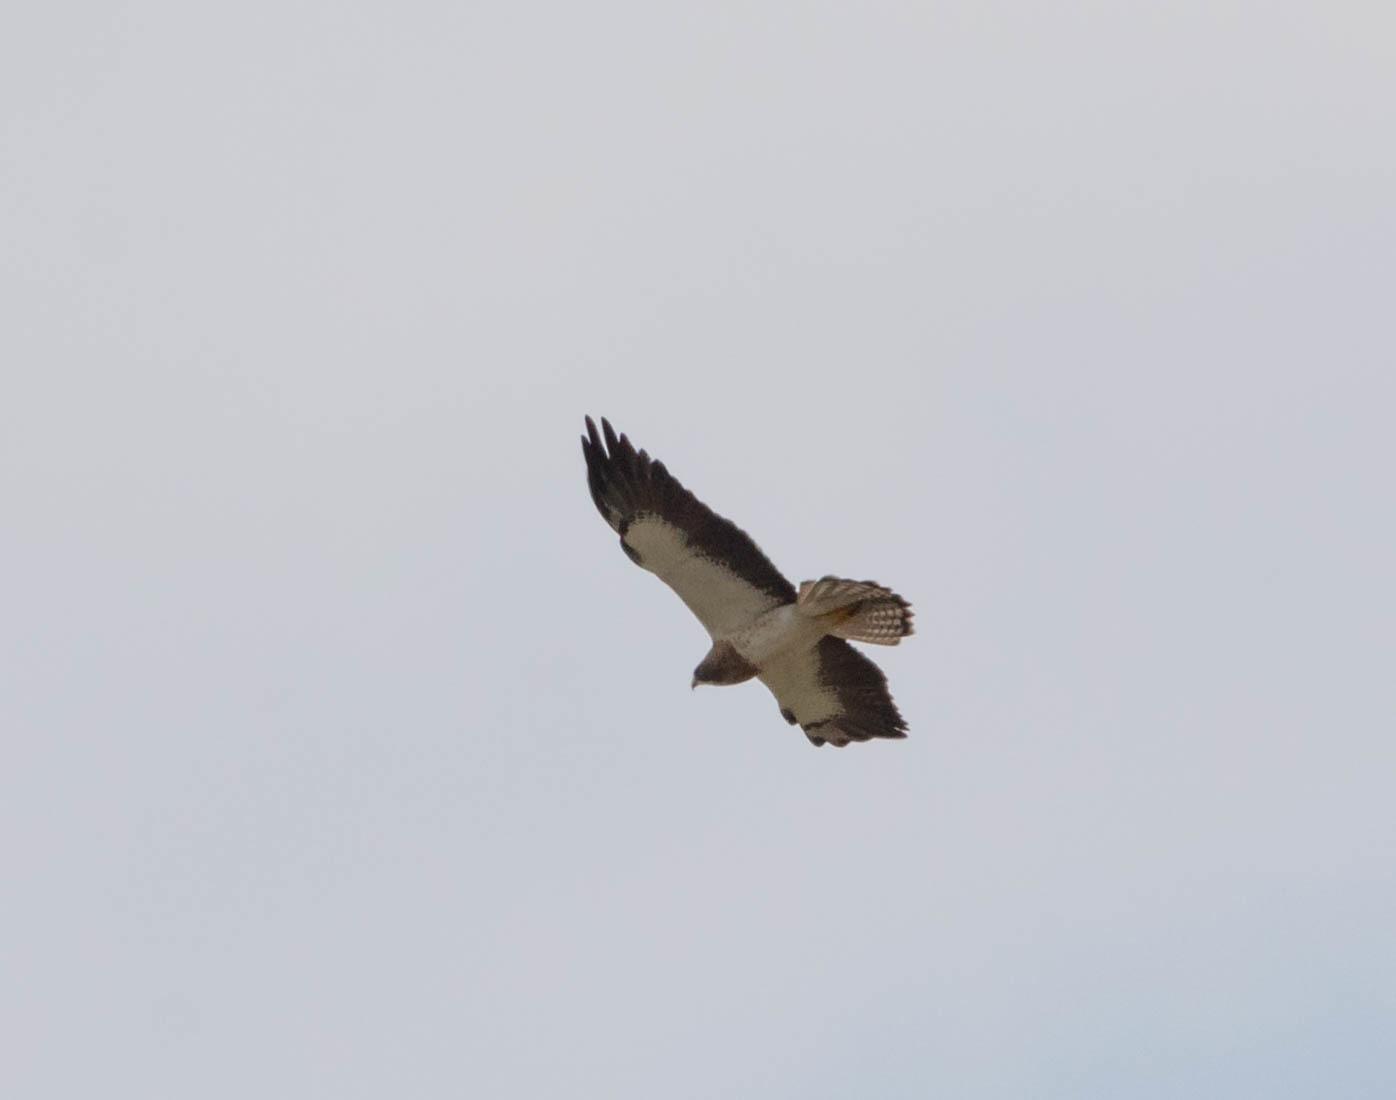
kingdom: Animalia
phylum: Chordata
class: Aves
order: Accipitriformes
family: Accipitridae
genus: Buteo
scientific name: Buteo swainsoni
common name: Swainson's hawk
